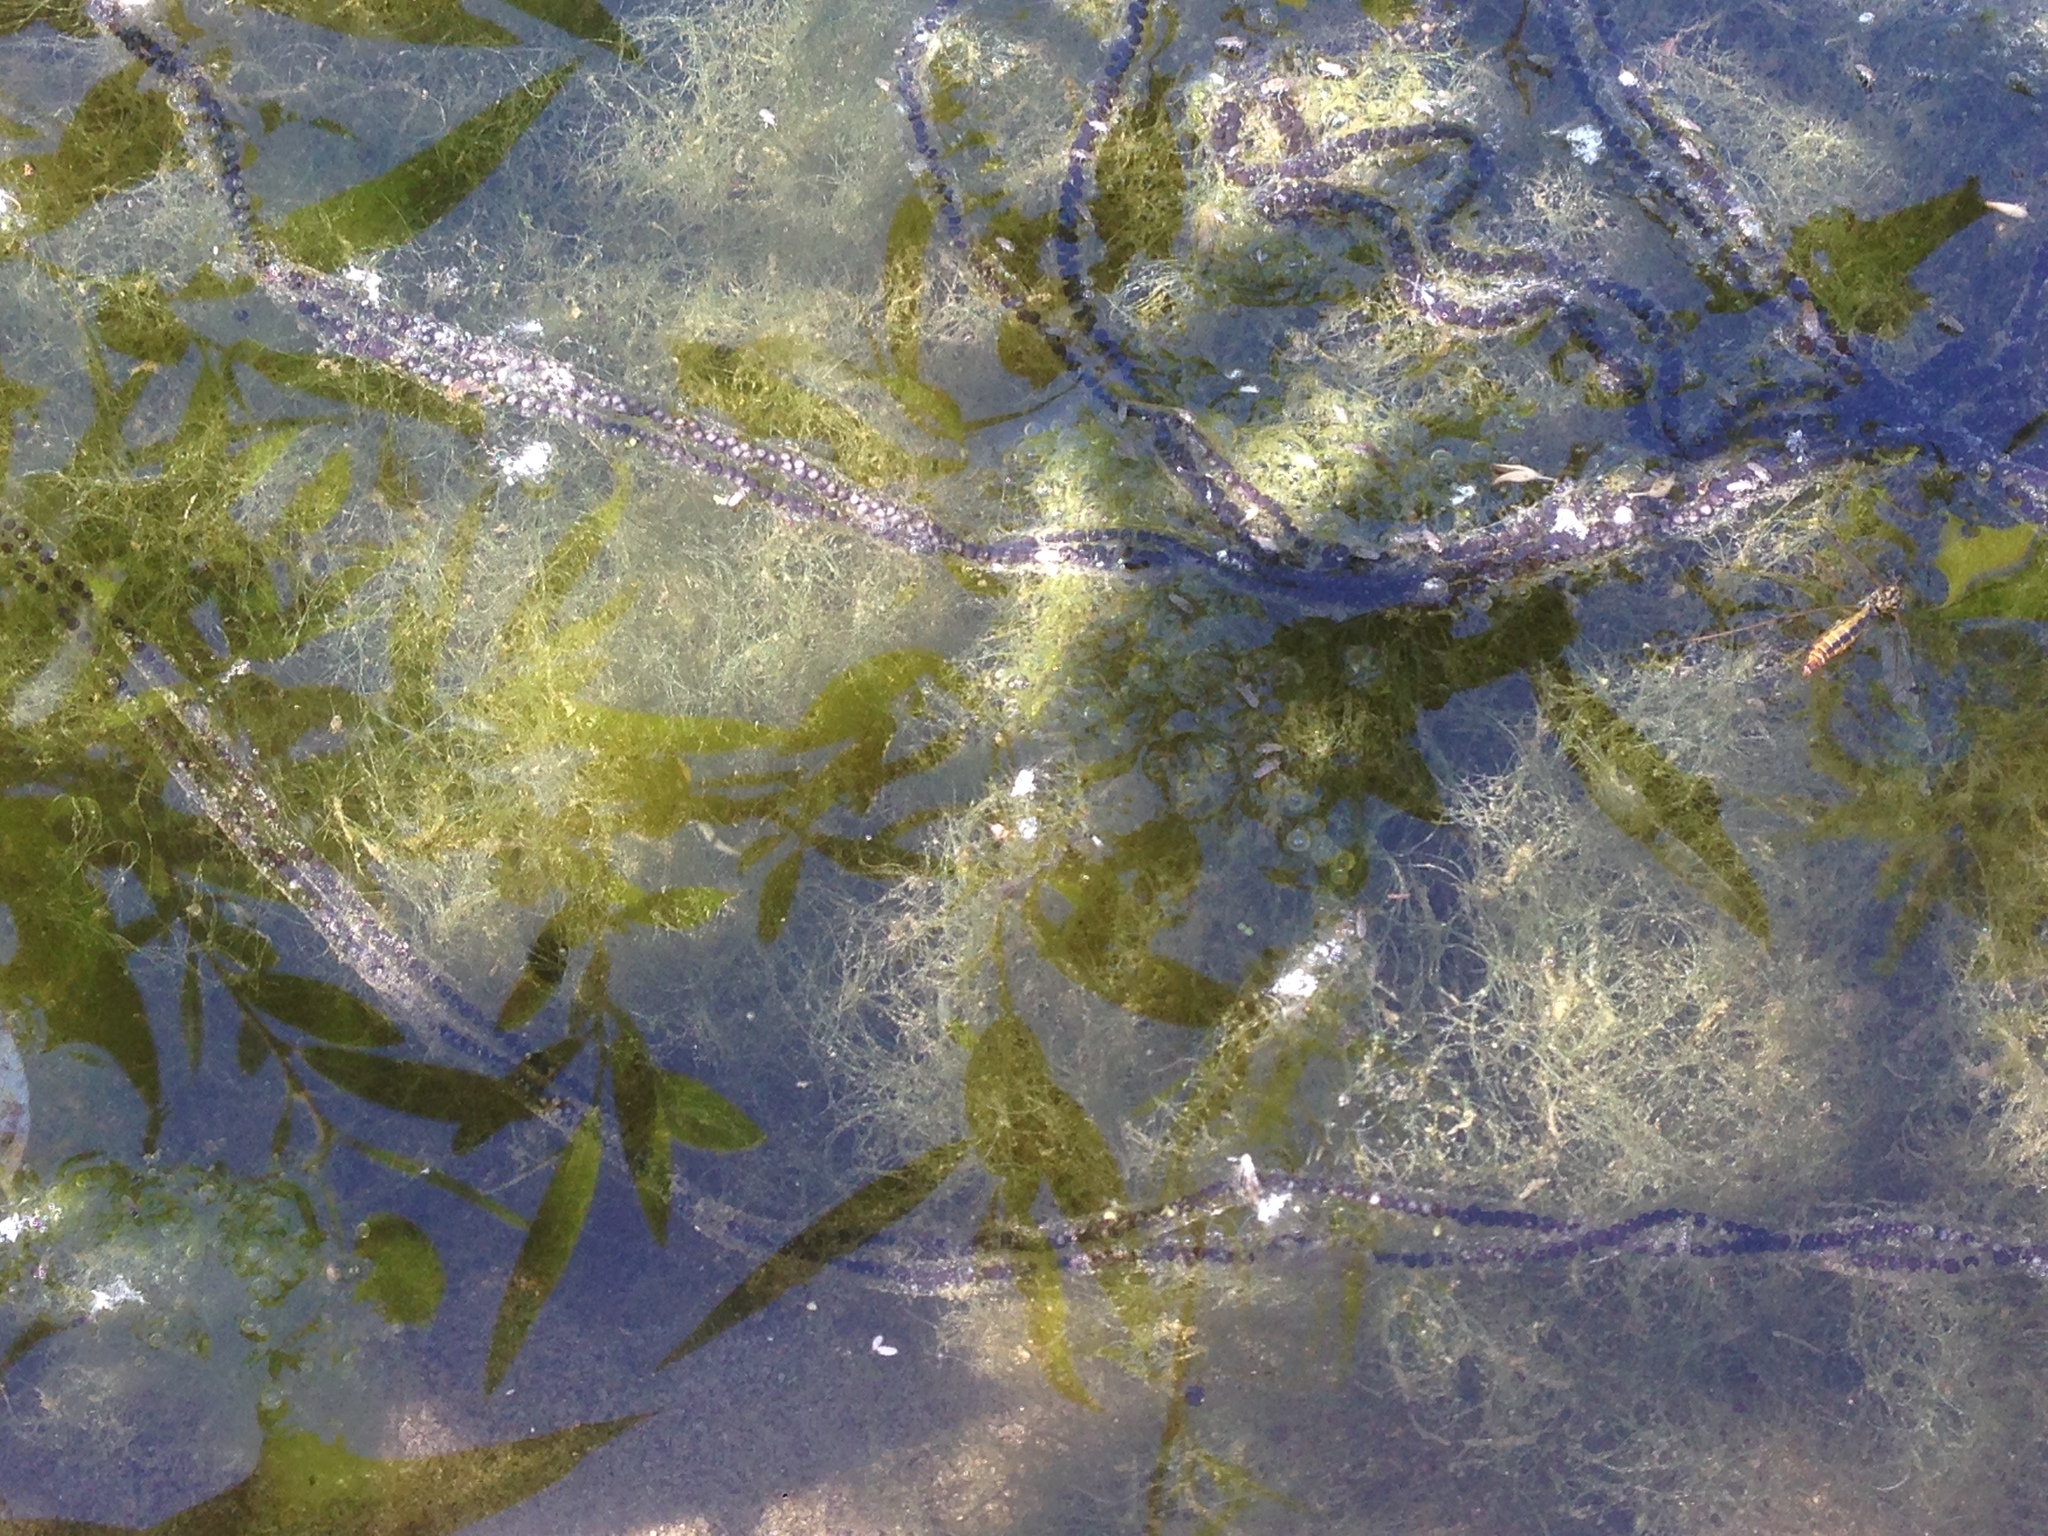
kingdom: Animalia
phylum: Chordata
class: Amphibia
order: Anura
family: Bufonidae
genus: Anaxyrus
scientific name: Anaxyrus boreas
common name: Western toad
